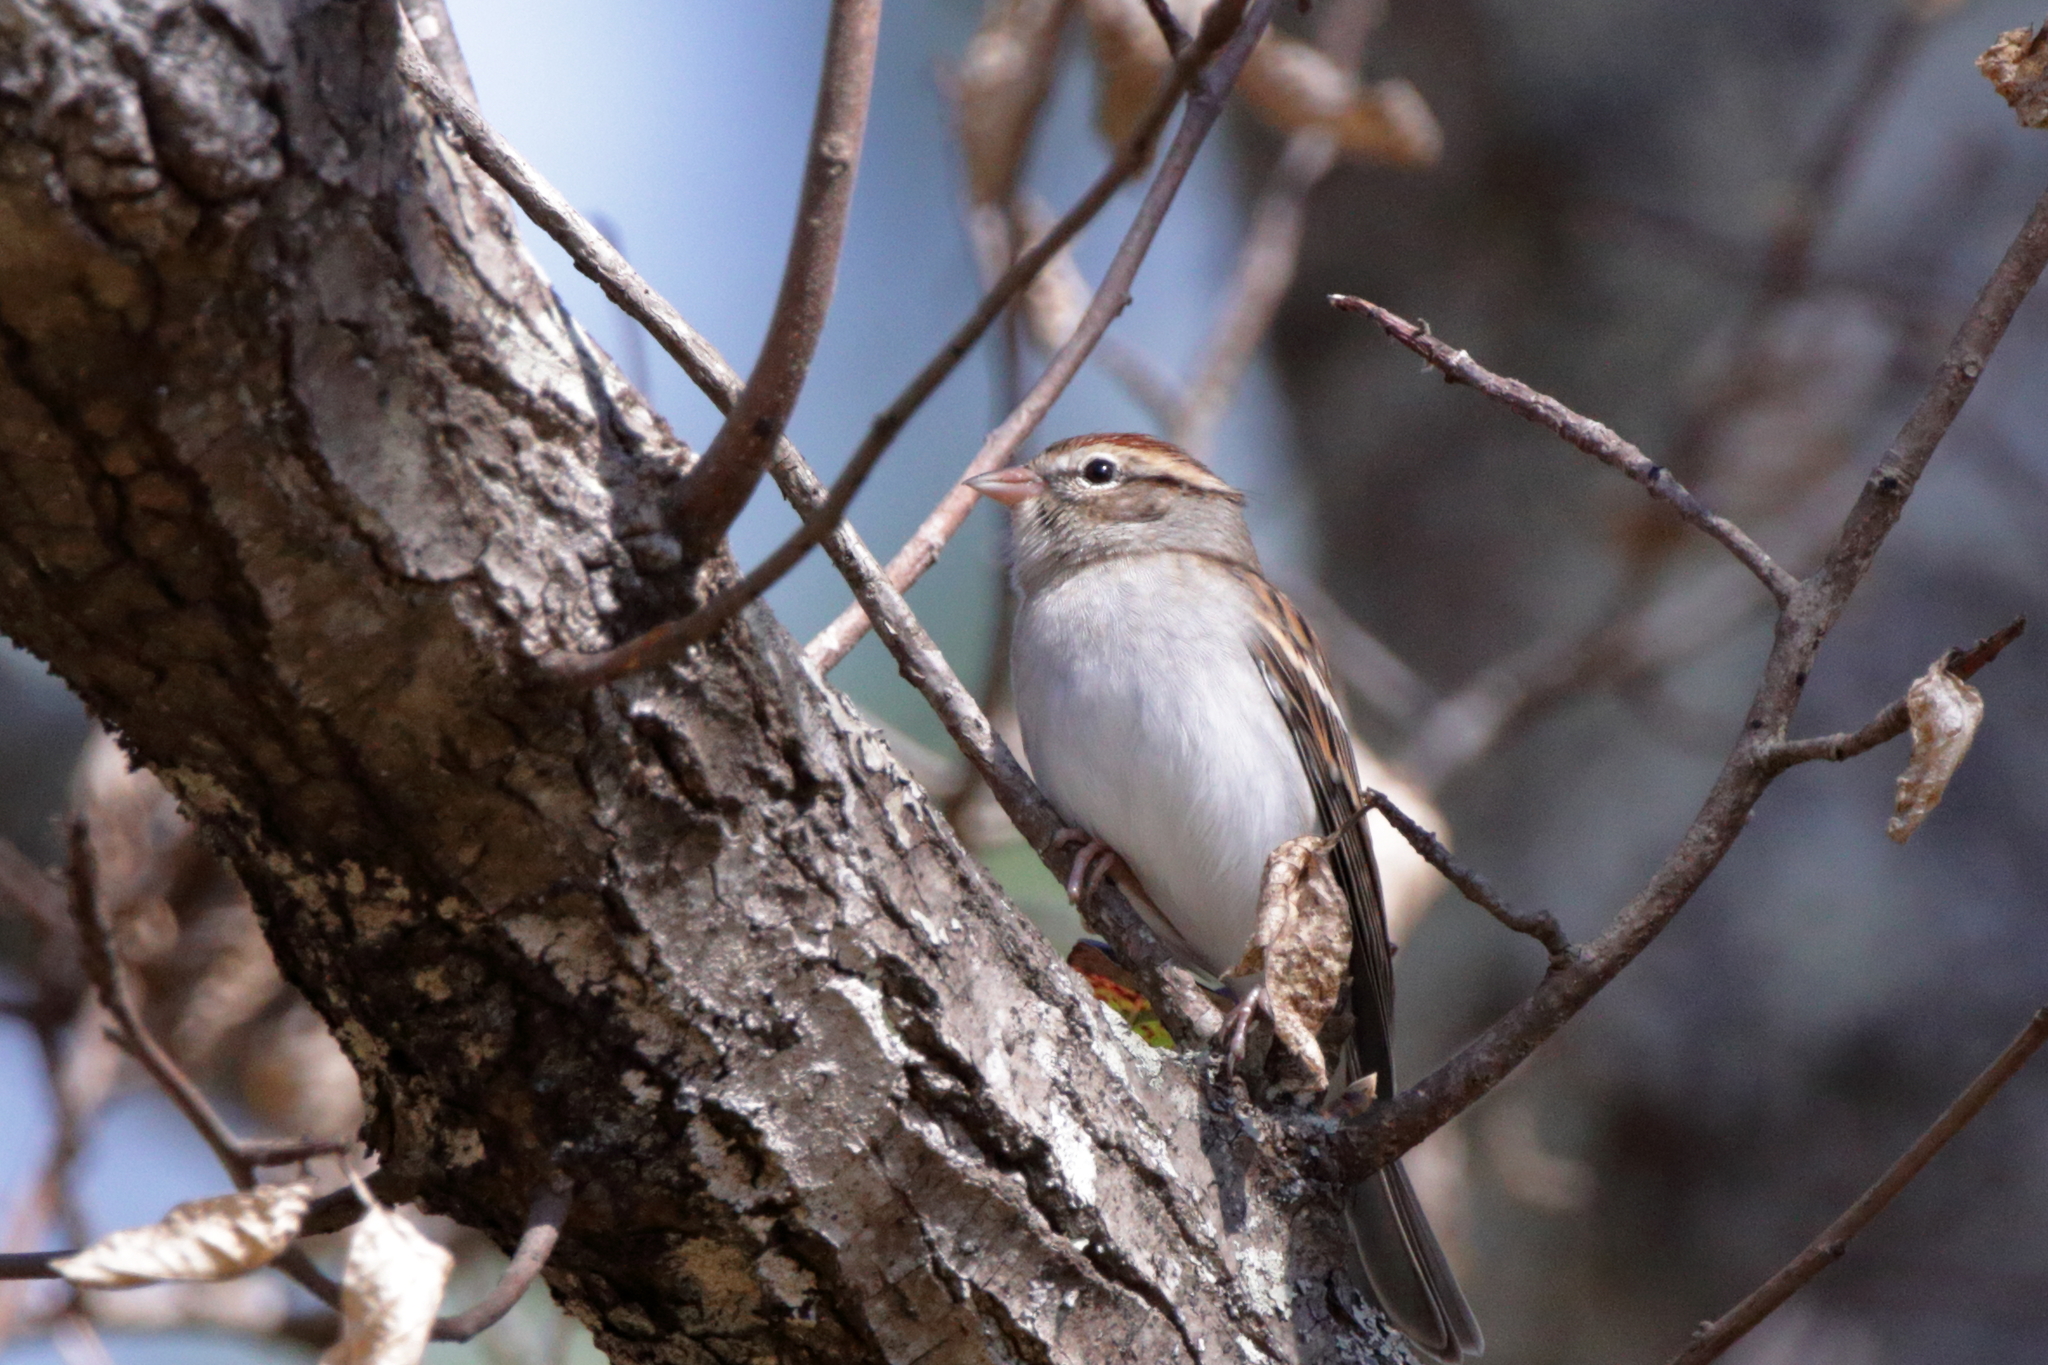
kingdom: Animalia
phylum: Chordata
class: Aves
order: Passeriformes
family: Passerellidae
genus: Spizella
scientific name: Spizella passerina
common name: Chipping sparrow
